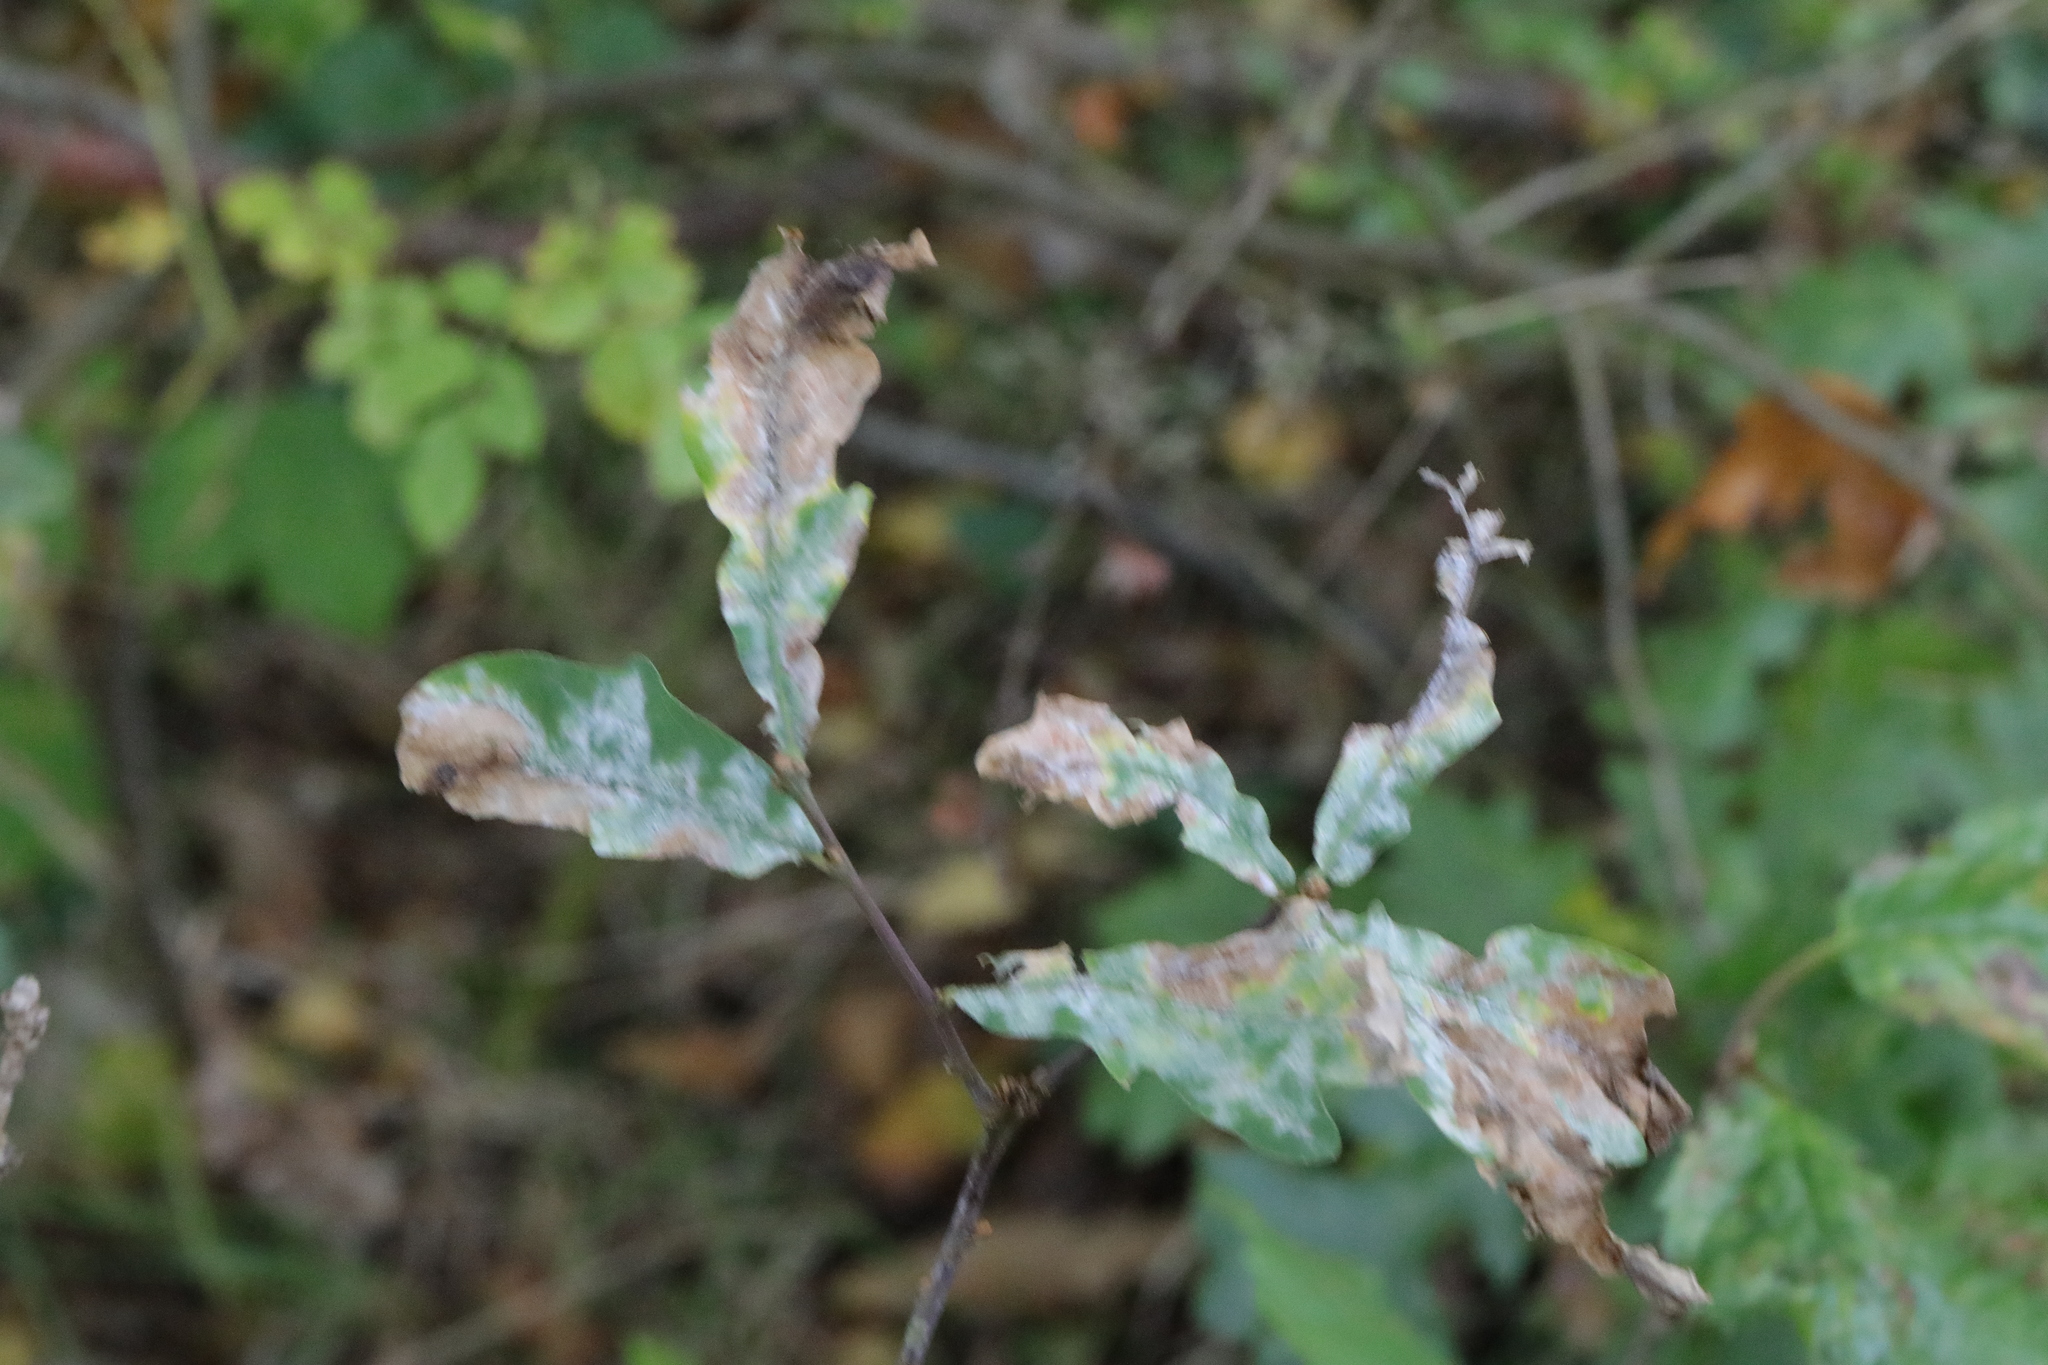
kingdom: Fungi
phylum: Ascomycota
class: Leotiomycetes
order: Helotiales
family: Erysiphaceae
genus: Erysiphe
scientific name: Erysiphe alphitoides
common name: Oak mildew
